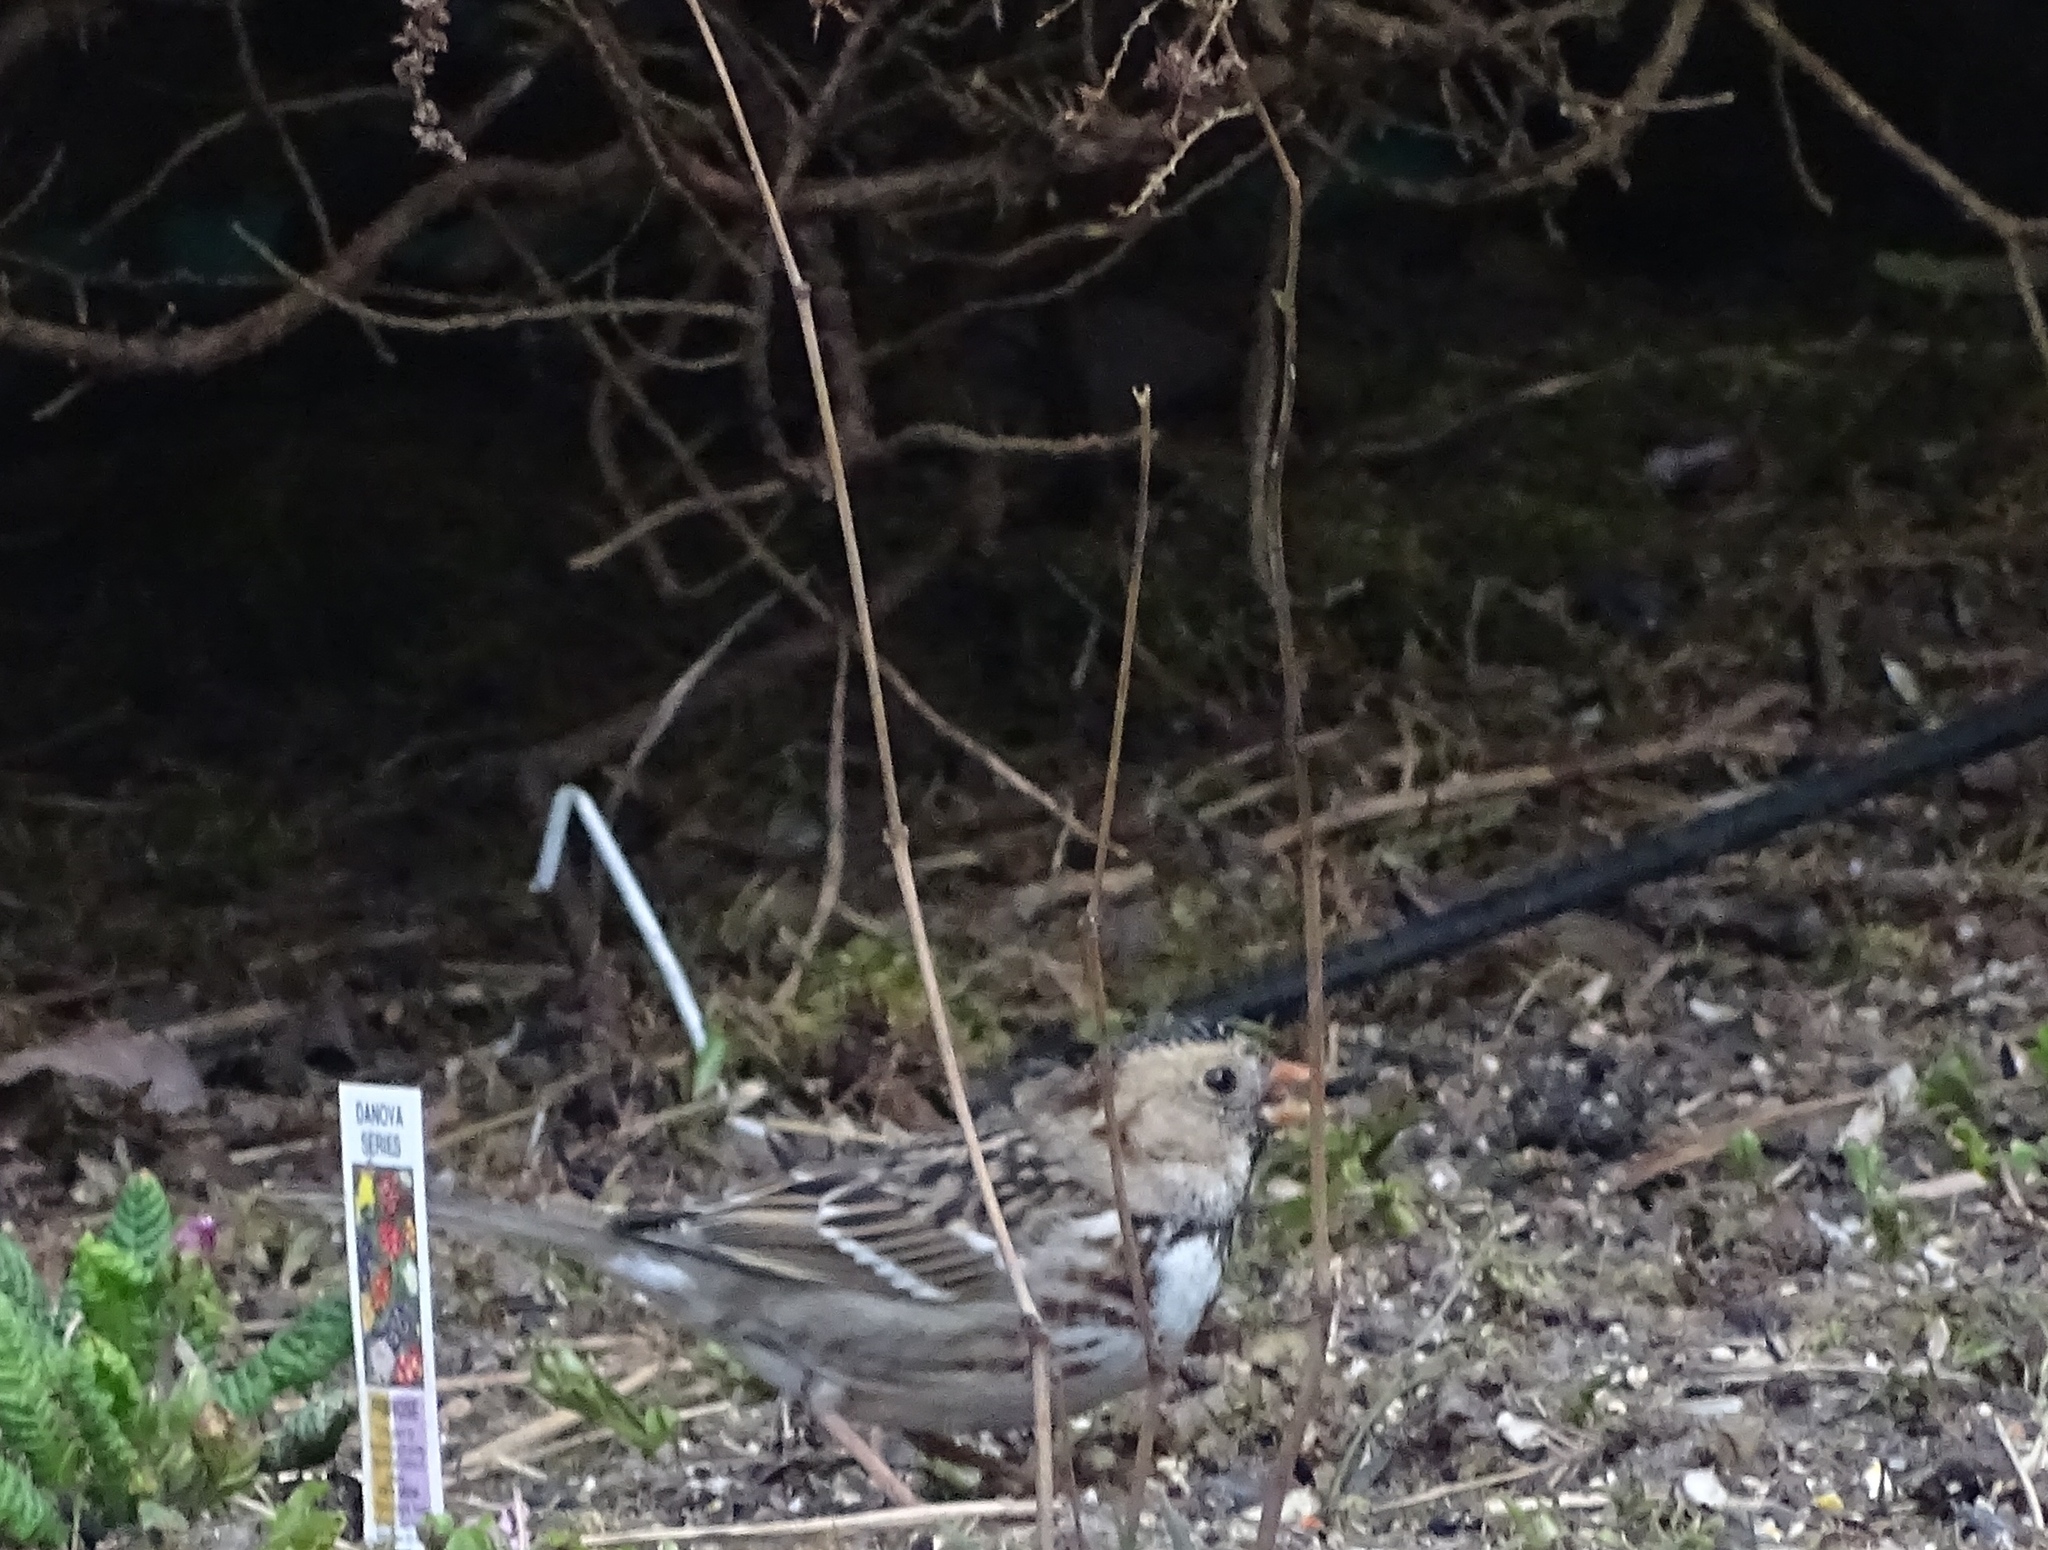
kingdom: Animalia
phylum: Chordata
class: Aves
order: Passeriformes
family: Passerellidae
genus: Zonotrichia
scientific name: Zonotrichia querula
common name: Harris's sparrow
